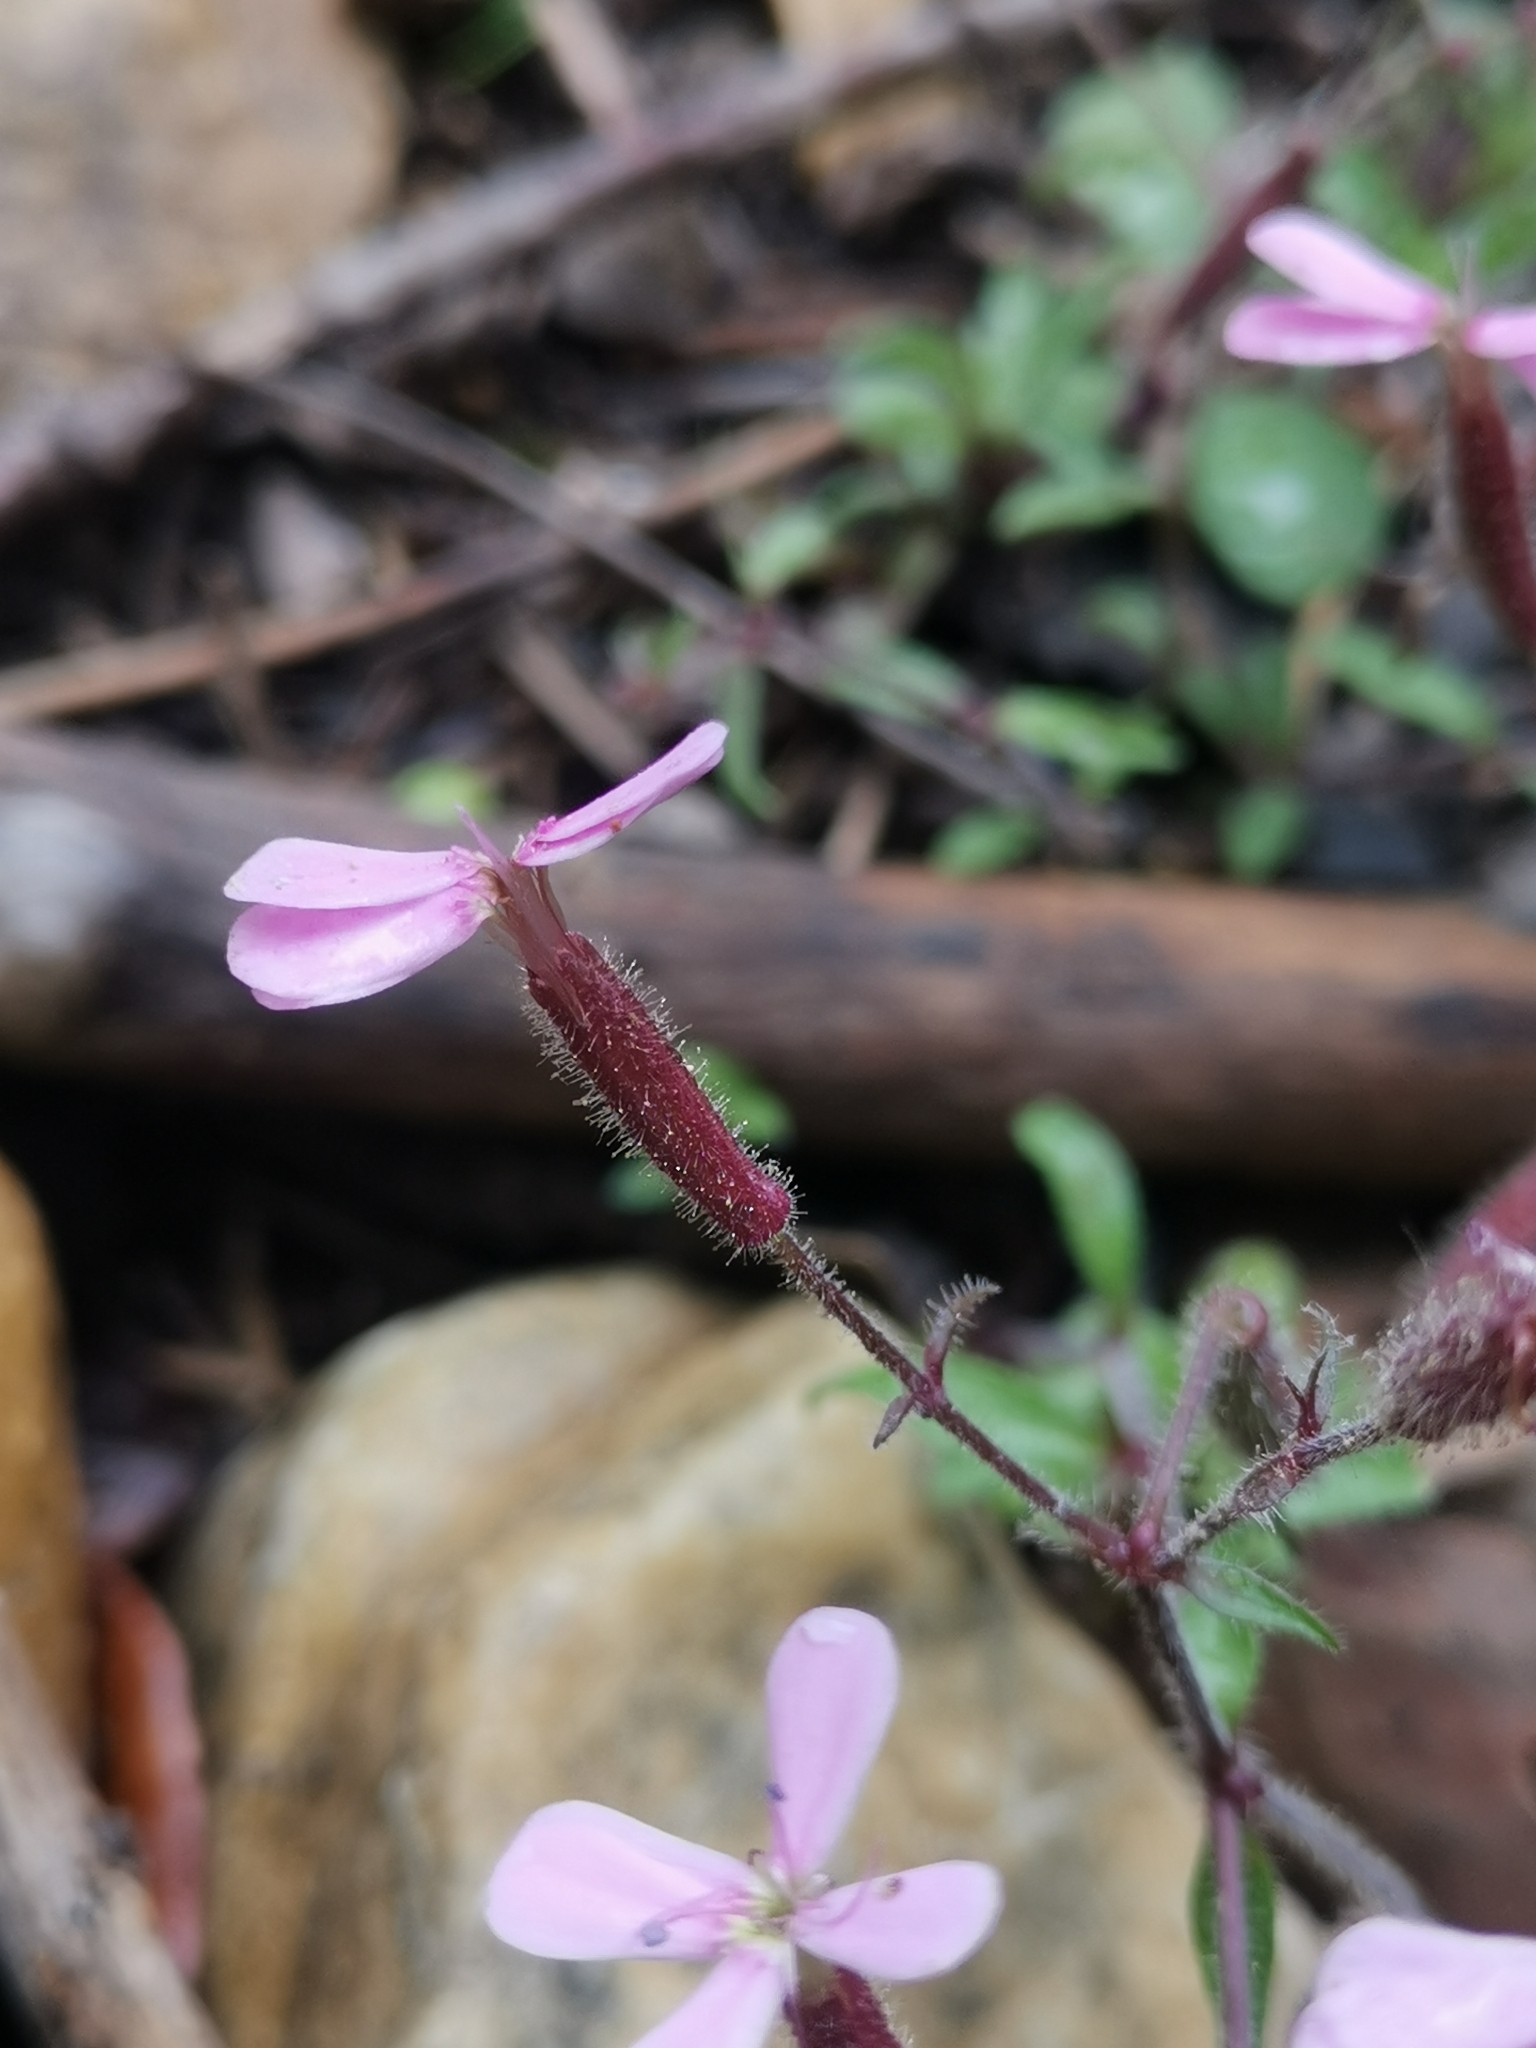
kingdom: Plantae
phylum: Tracheophyta
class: Magnoliopsida
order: Caryophyllales
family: Caryophyllaceae
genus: Saponaria
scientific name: Saponaria ocymoides
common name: Rock soapwort
